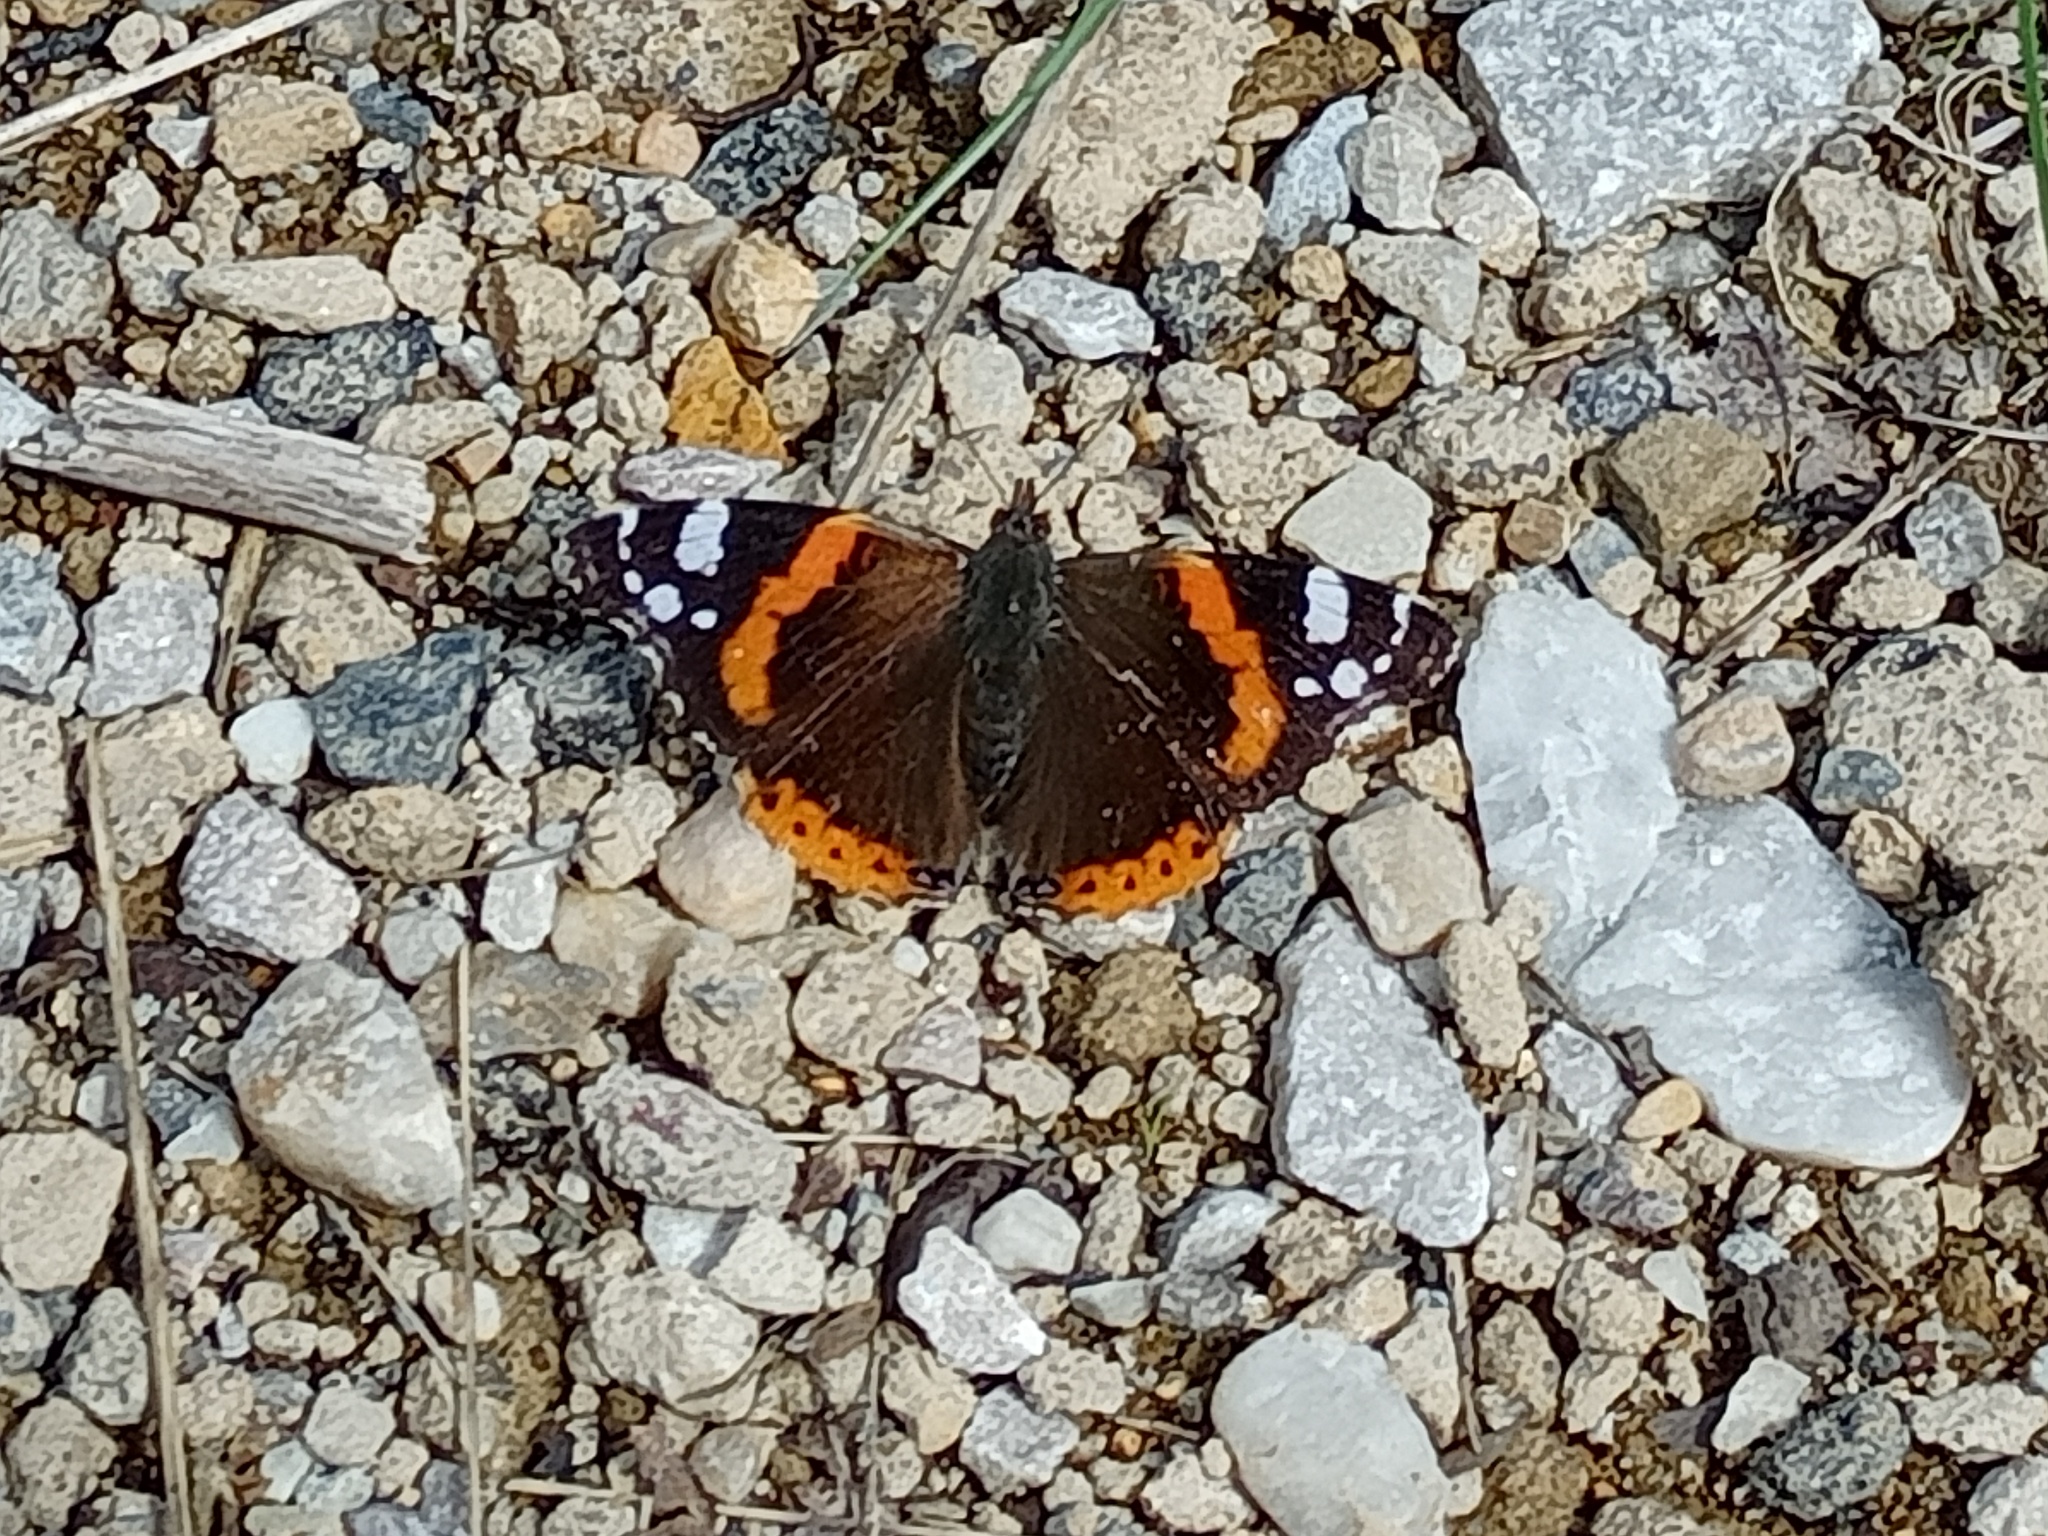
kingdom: Animalia
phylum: Arthropoda
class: Insecta
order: Lepidoptera
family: Nymphalidae
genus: Vanessa
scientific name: Vanessa atalanta
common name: Red admiral
